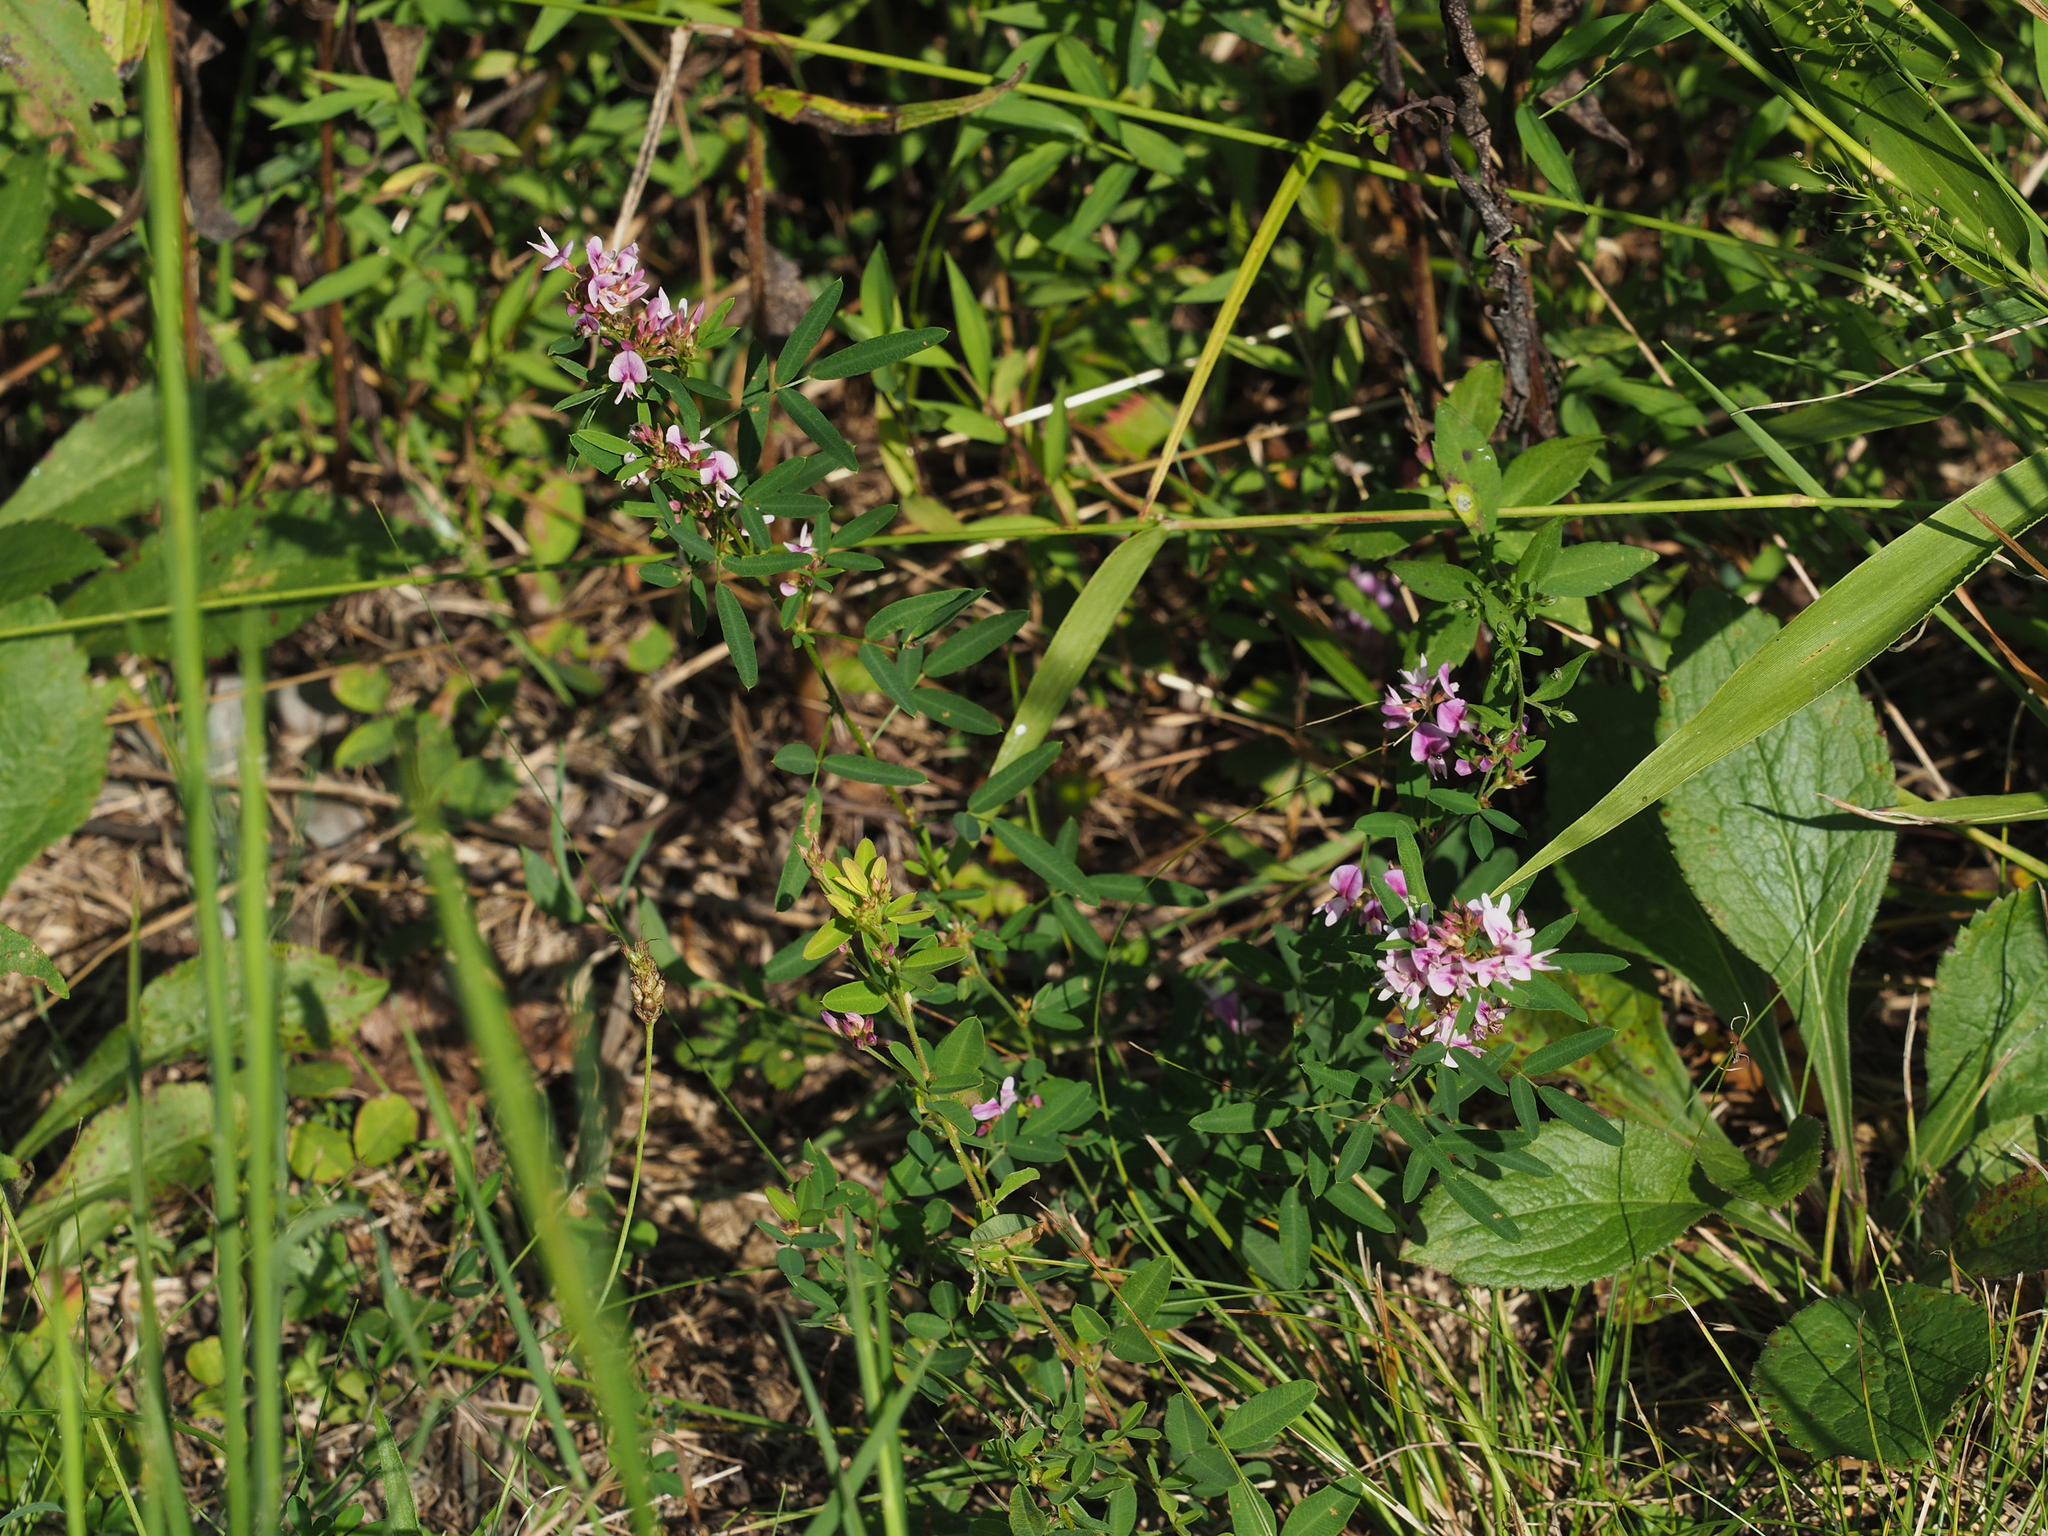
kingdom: Plantae
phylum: Tracheophyta
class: Magnoliopsida
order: Fabales
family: Fabaceae
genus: Lespedeza
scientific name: Lespedeza virginica
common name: Slender bush-clover
